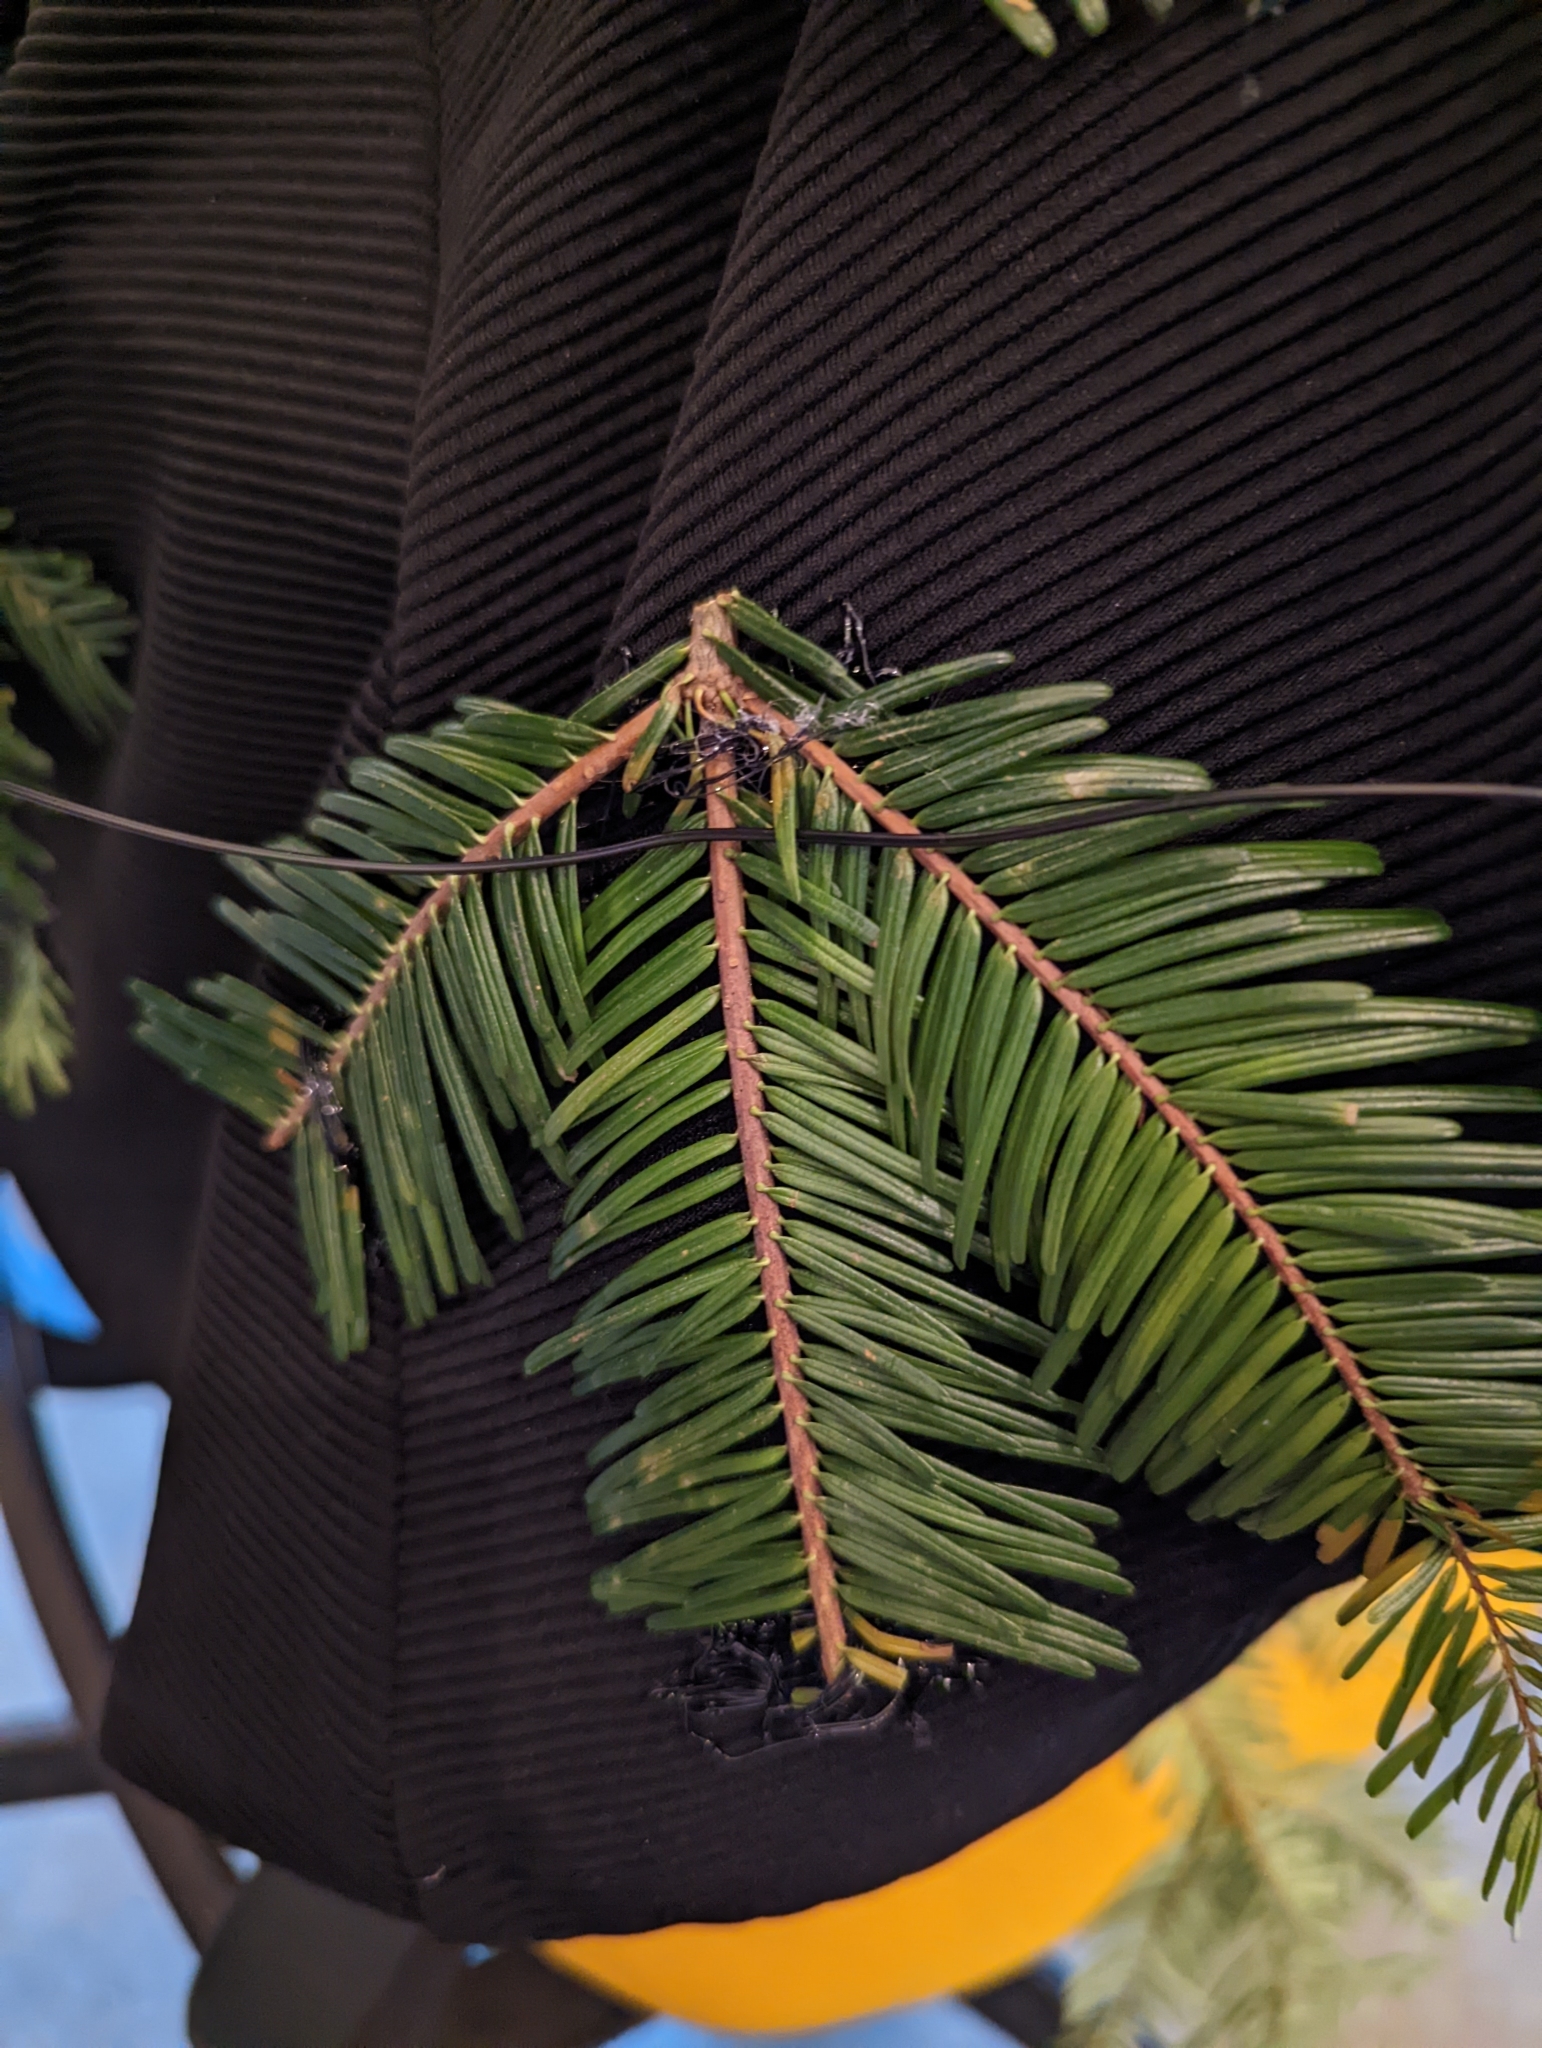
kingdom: Plantae
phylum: Tracheophyta
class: Pinopsida
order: Pinales
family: Pinaceae
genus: Abies
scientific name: Abies grandis
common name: Giant fir
